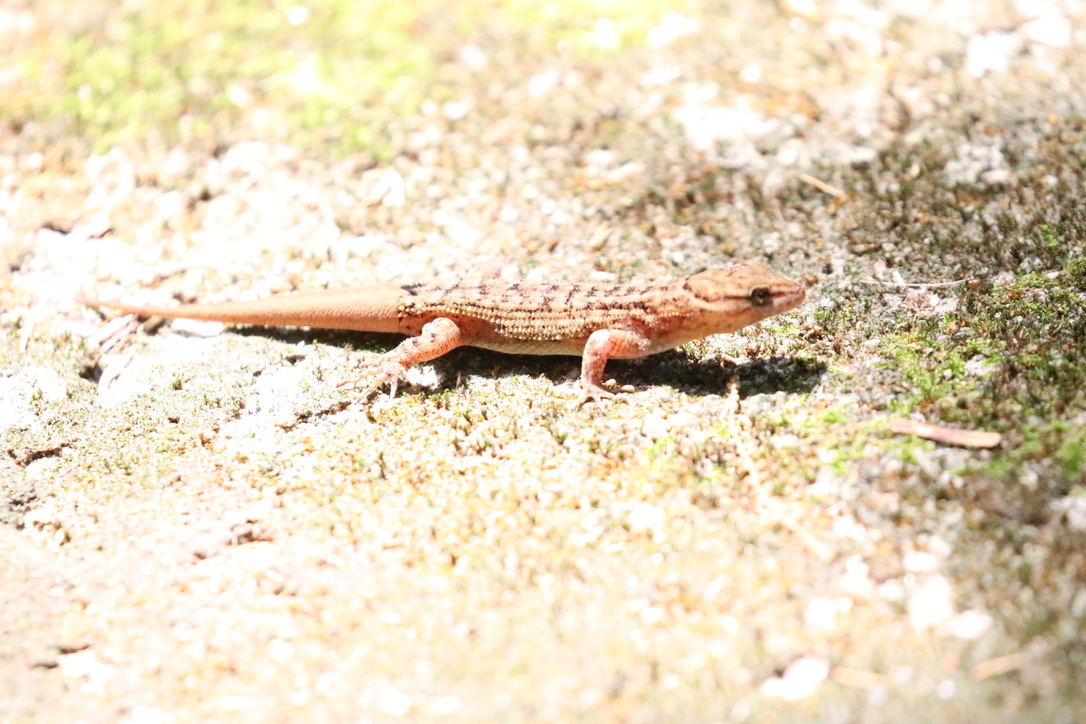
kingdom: Animalia
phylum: Chordata
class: Squamata
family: Phyllodactylidae
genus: Gymnodactylus
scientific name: Gymnodactylus darwinii
